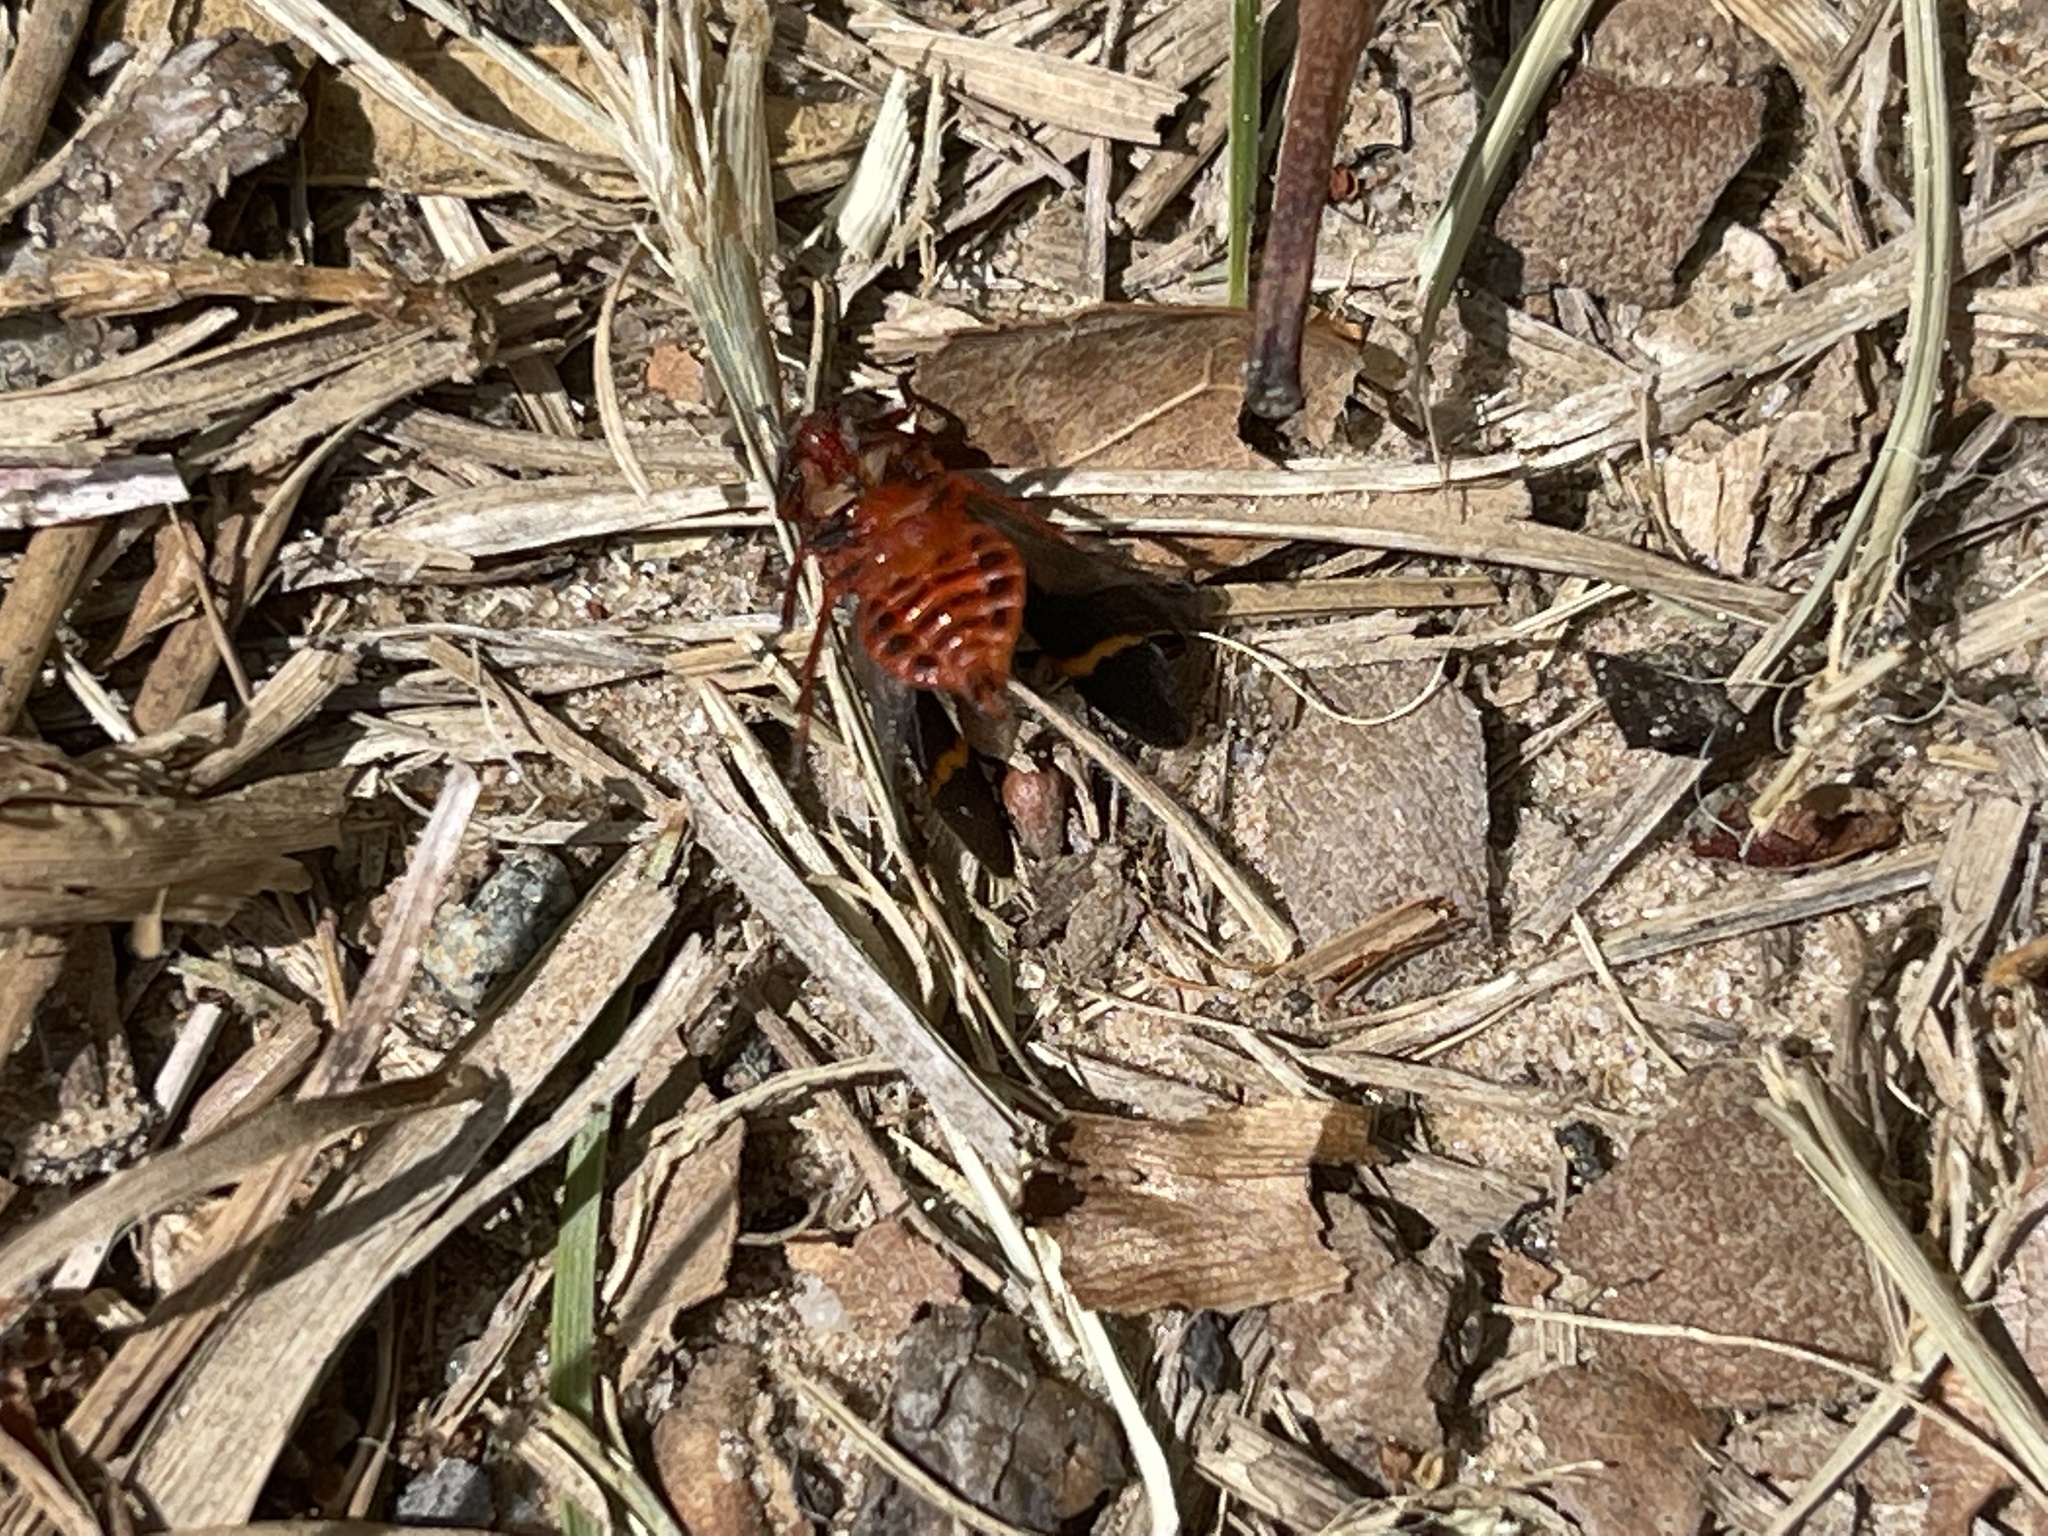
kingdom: Animalia
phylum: Arthropoda
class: Insecta
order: Hemiptera
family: Cercopidae
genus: Prosapia
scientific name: Prosapia bicincta
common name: Twolined spittlebug
